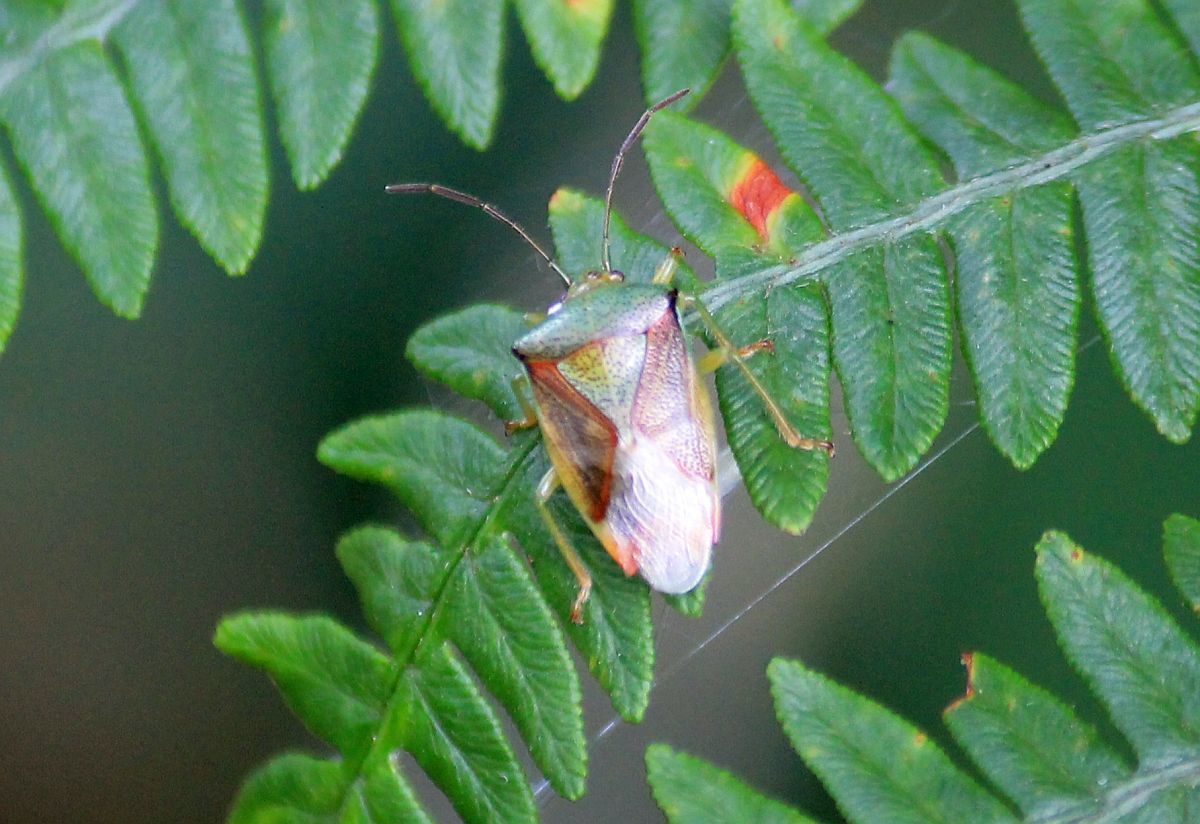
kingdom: Animalia
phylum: Arthropoda
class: Insecta
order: Hemiptera
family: Acanthosomatidae
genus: Elasmostethus
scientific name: Elasmostethus interstinctus
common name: Birch shieldbug
